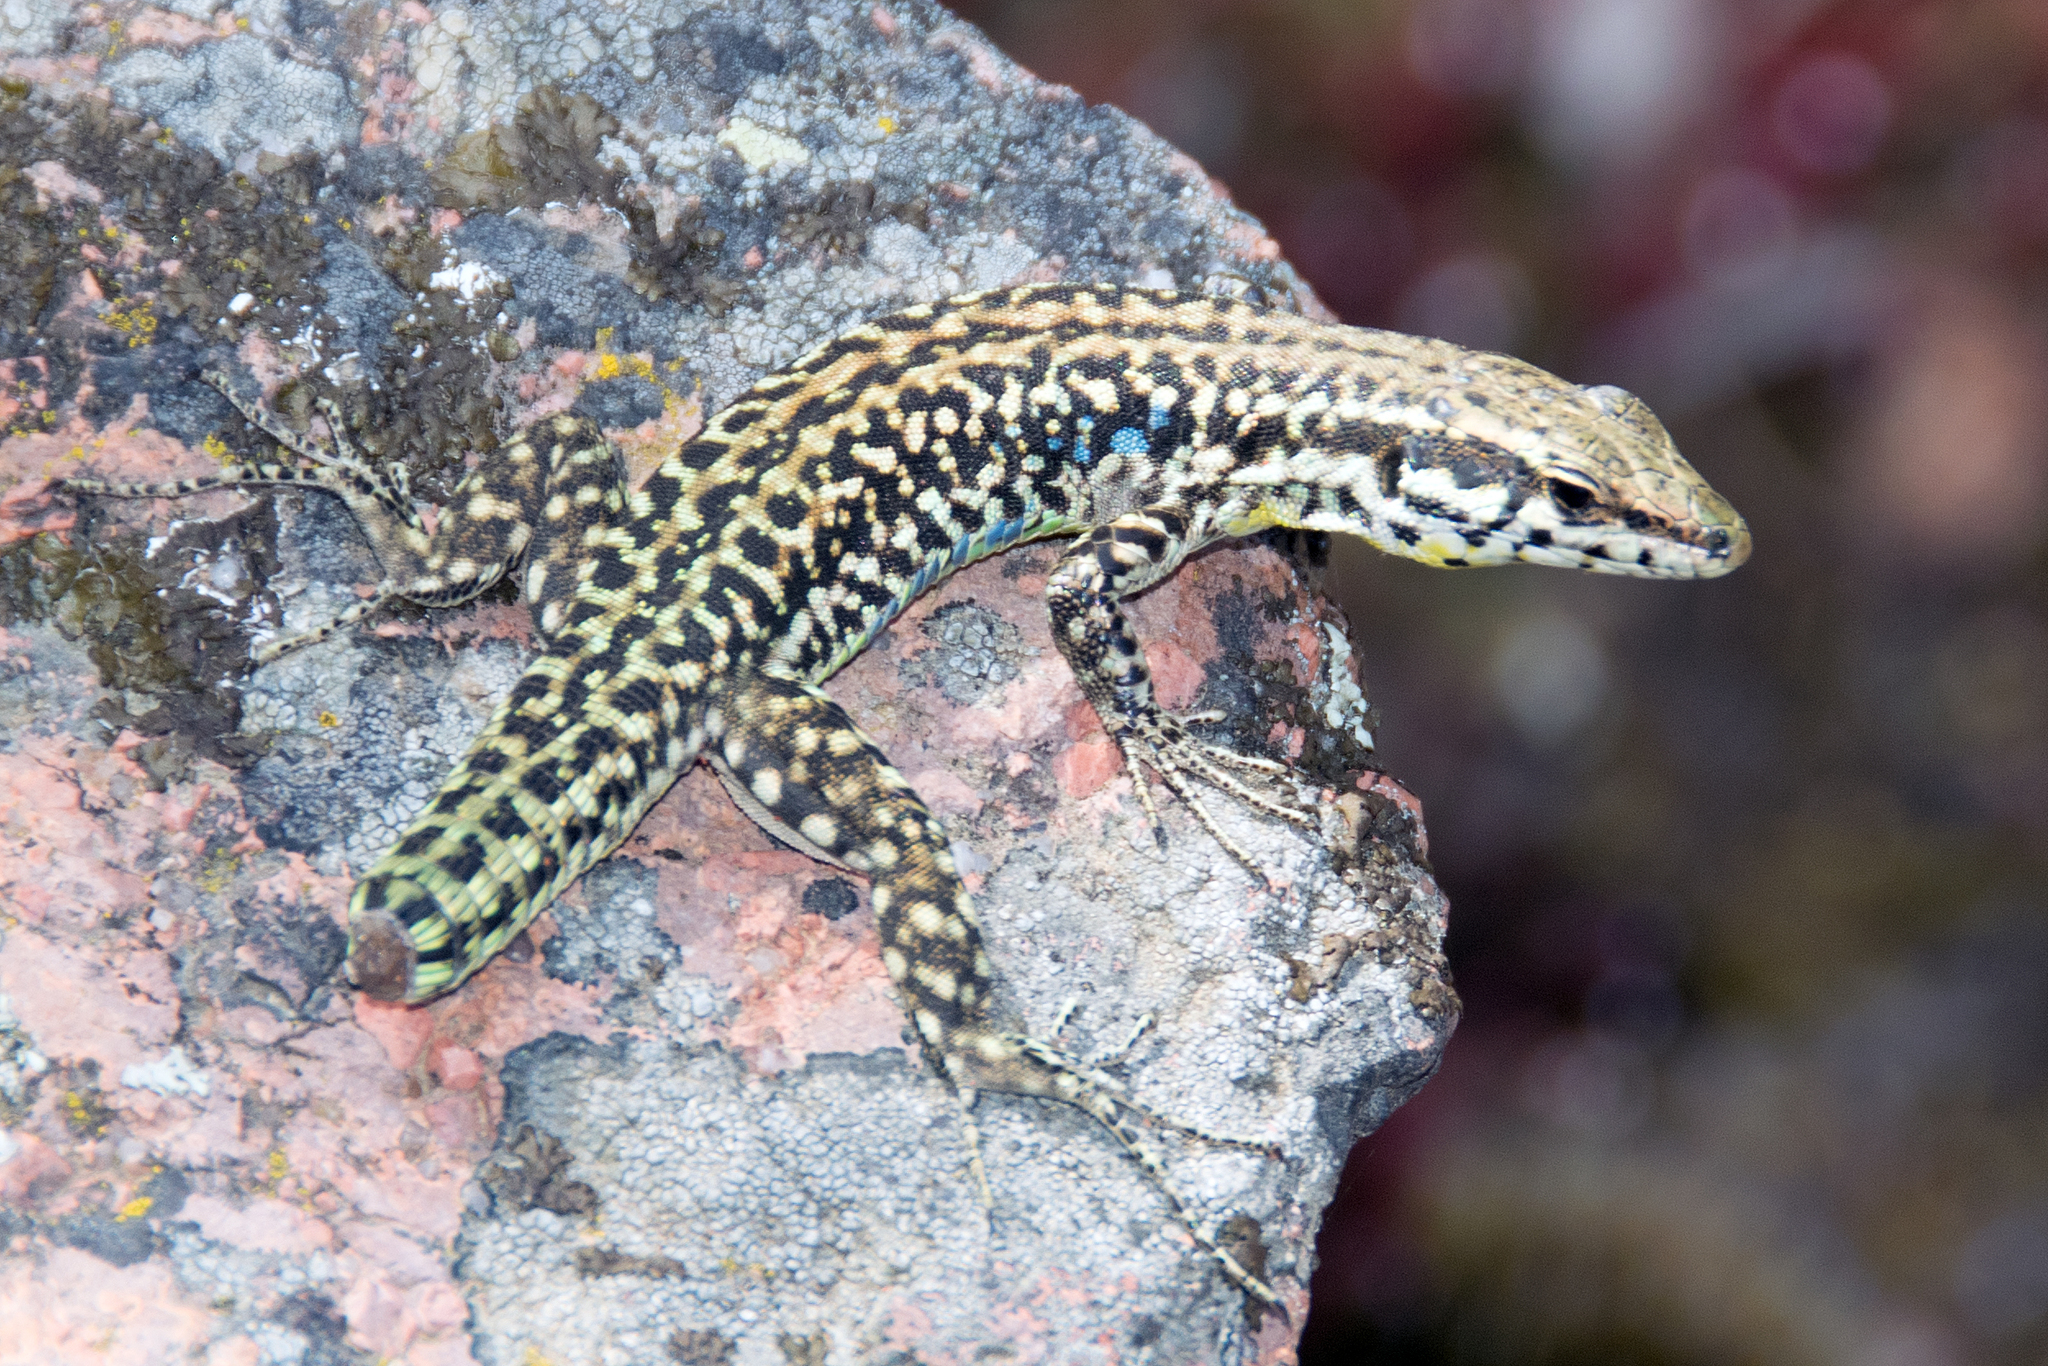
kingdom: Animalia
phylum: Chordata
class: Squamata
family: Lacertidae
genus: Podarcis
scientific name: Podarcis tiliguerta
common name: Tyrrhenian wall lizard
